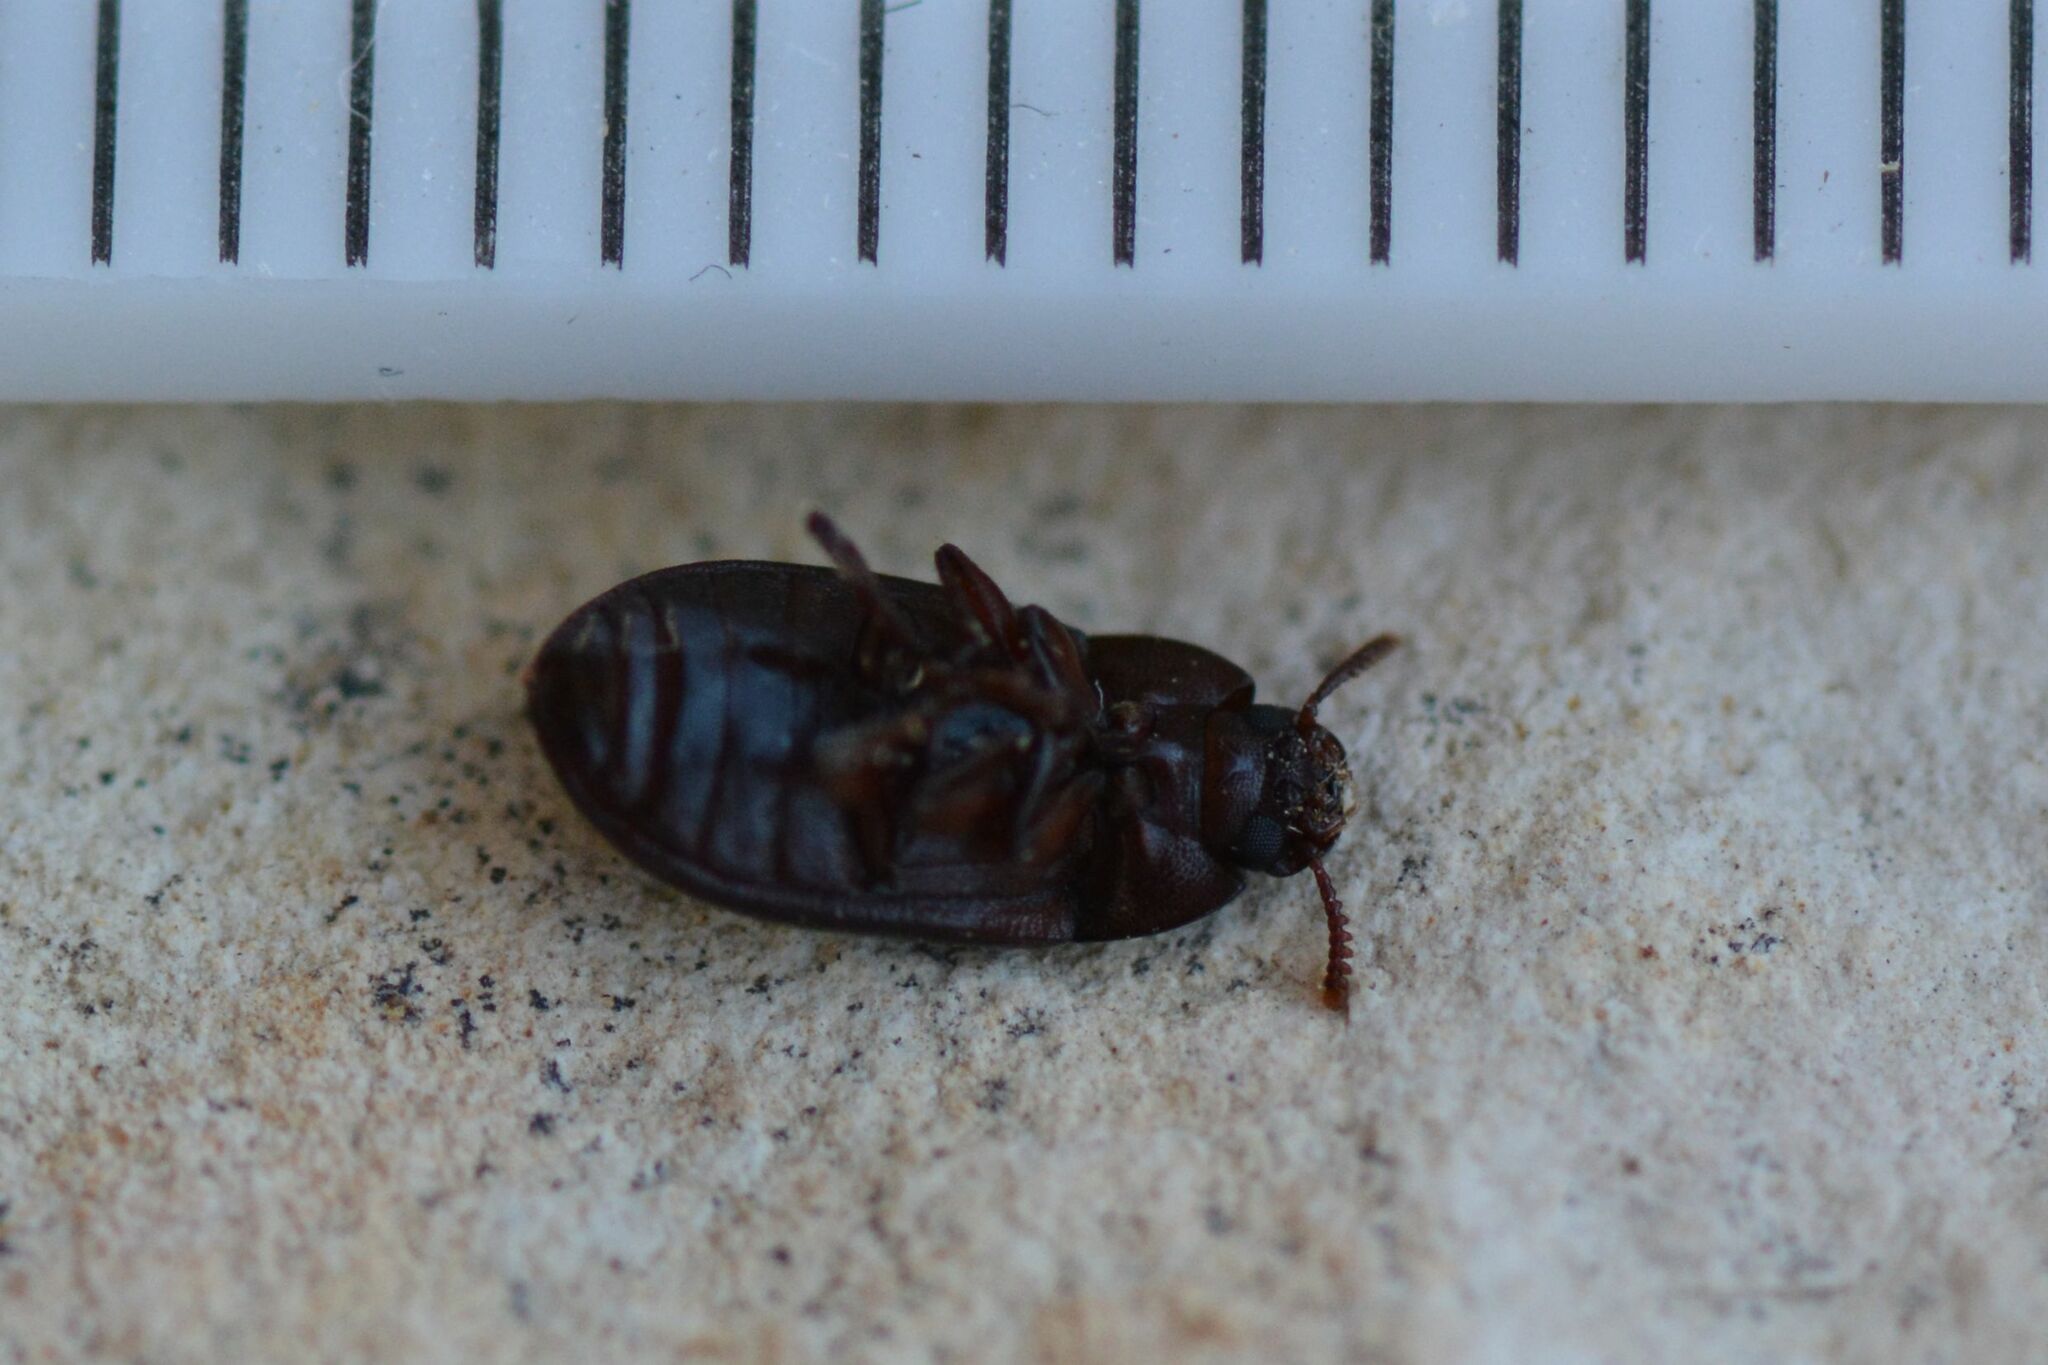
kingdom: Animalia
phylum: Arthropoda
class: Insecta
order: Coleoptera
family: Tenebrionidae
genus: Alphitobius
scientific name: Alphitobius diaperinus
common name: Lesser mealworm
